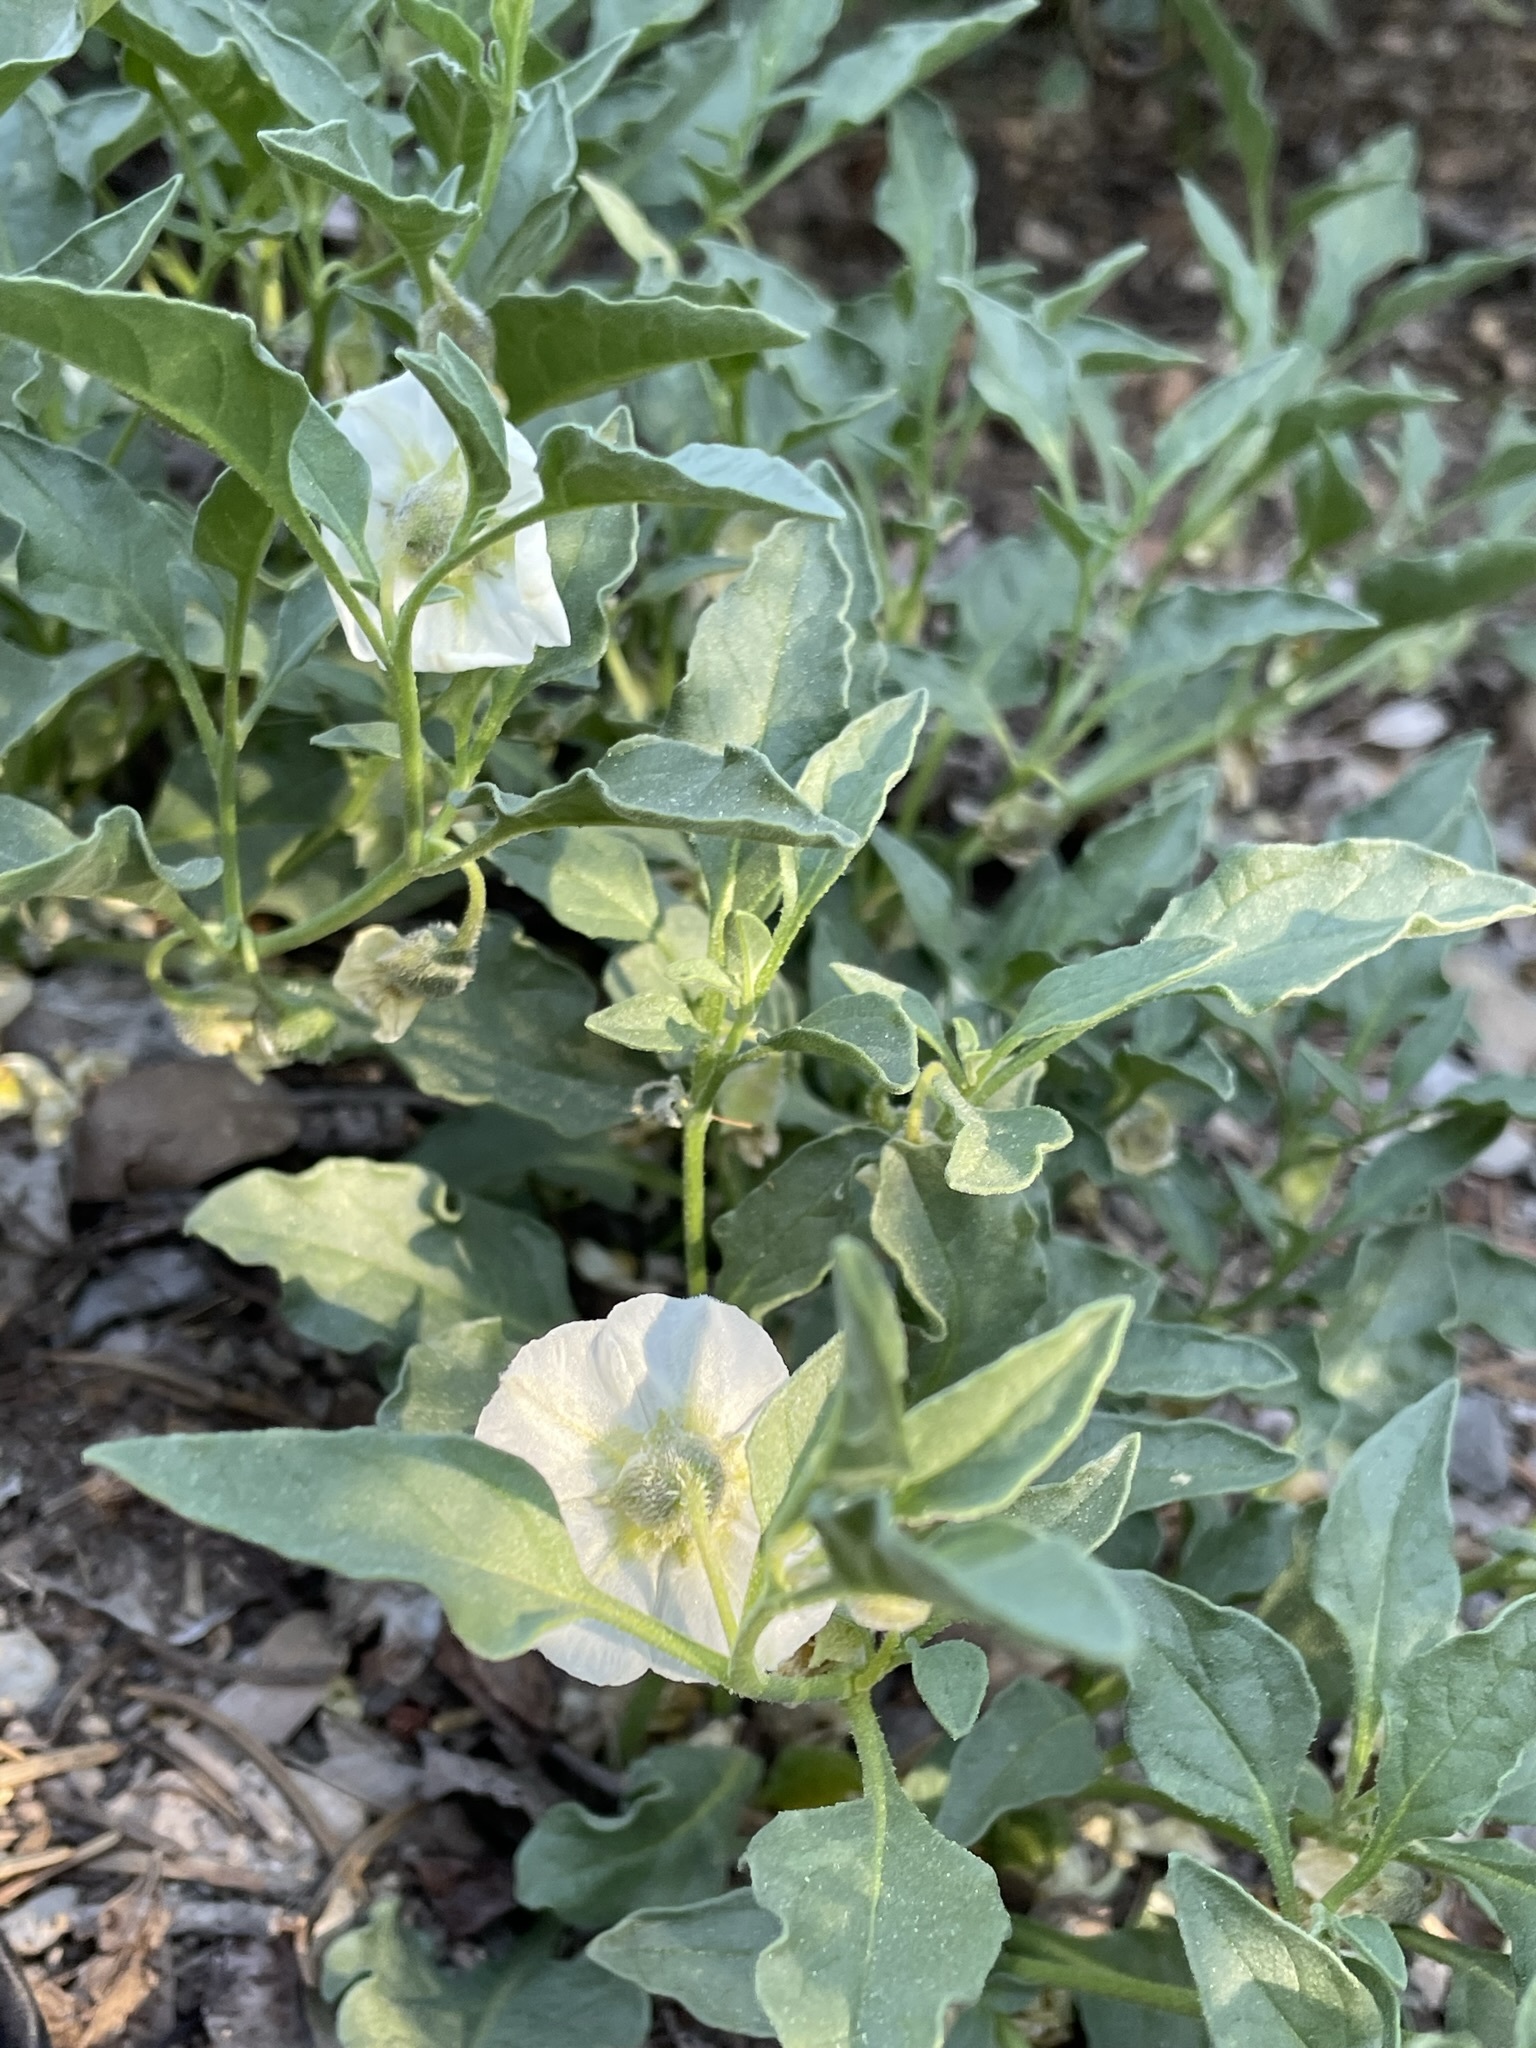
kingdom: Plantae
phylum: Tracheophyta
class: Magnoliopsida
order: Solanales
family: Solanaceae
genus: Leucophysalis
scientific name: Leucophysalis nana
